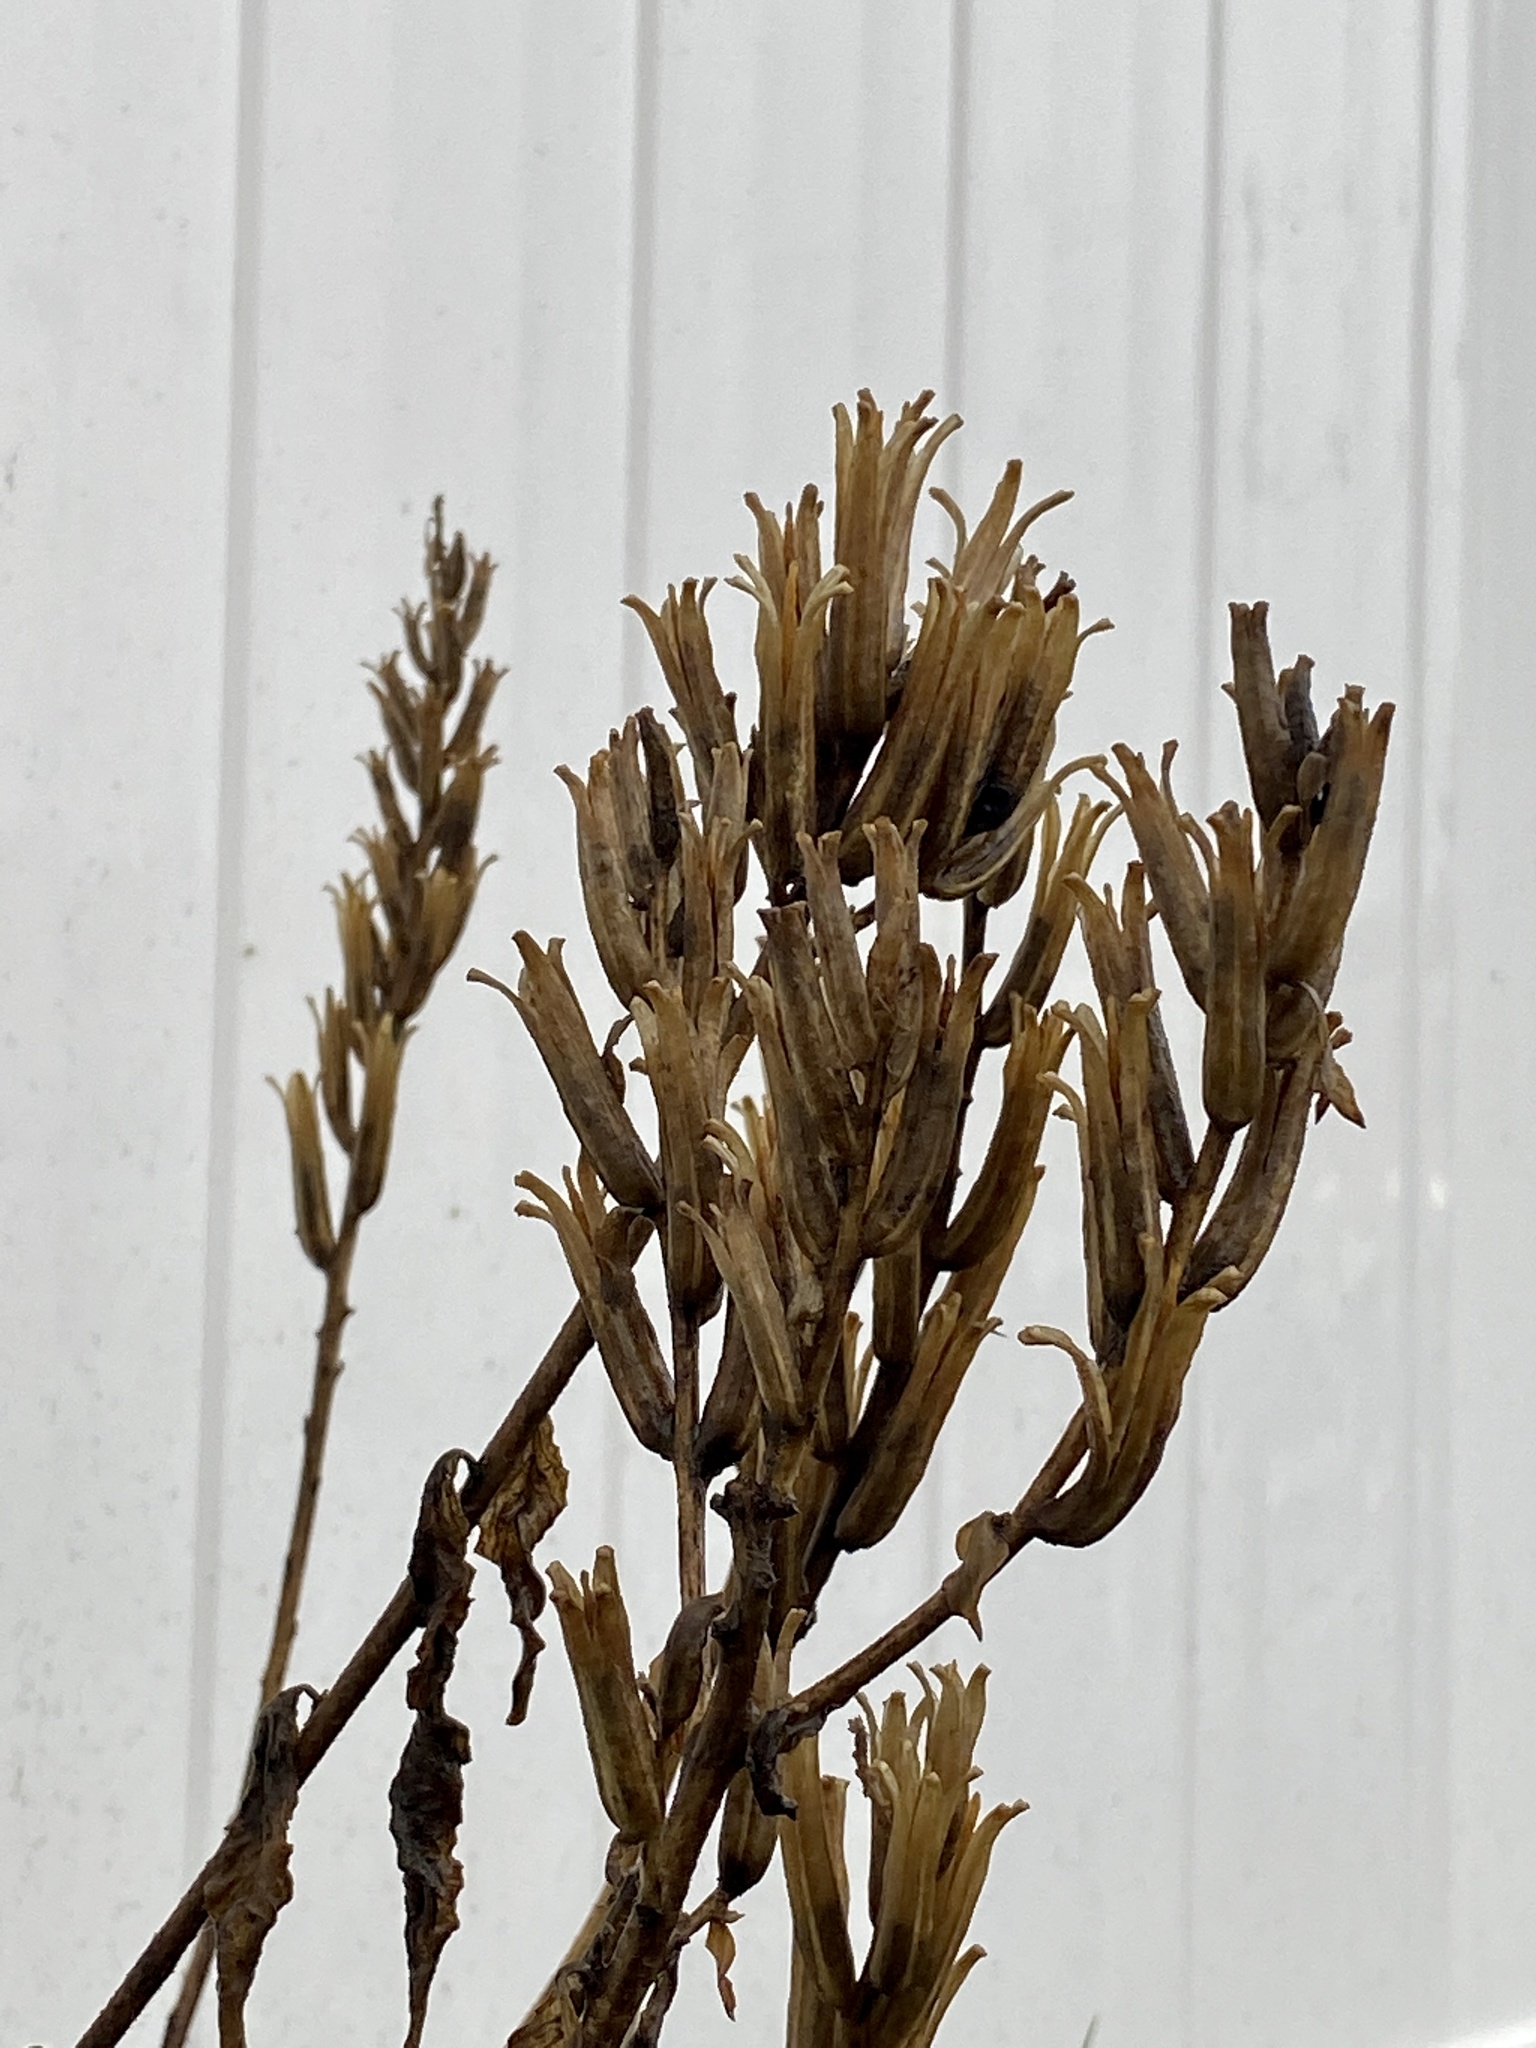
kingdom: Plantae
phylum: Tracheophyta
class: Magnoliopsida
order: Myrtales
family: Onagraceae
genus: Oenothera
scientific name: Oenothera biennis
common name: Common evening-primrose
